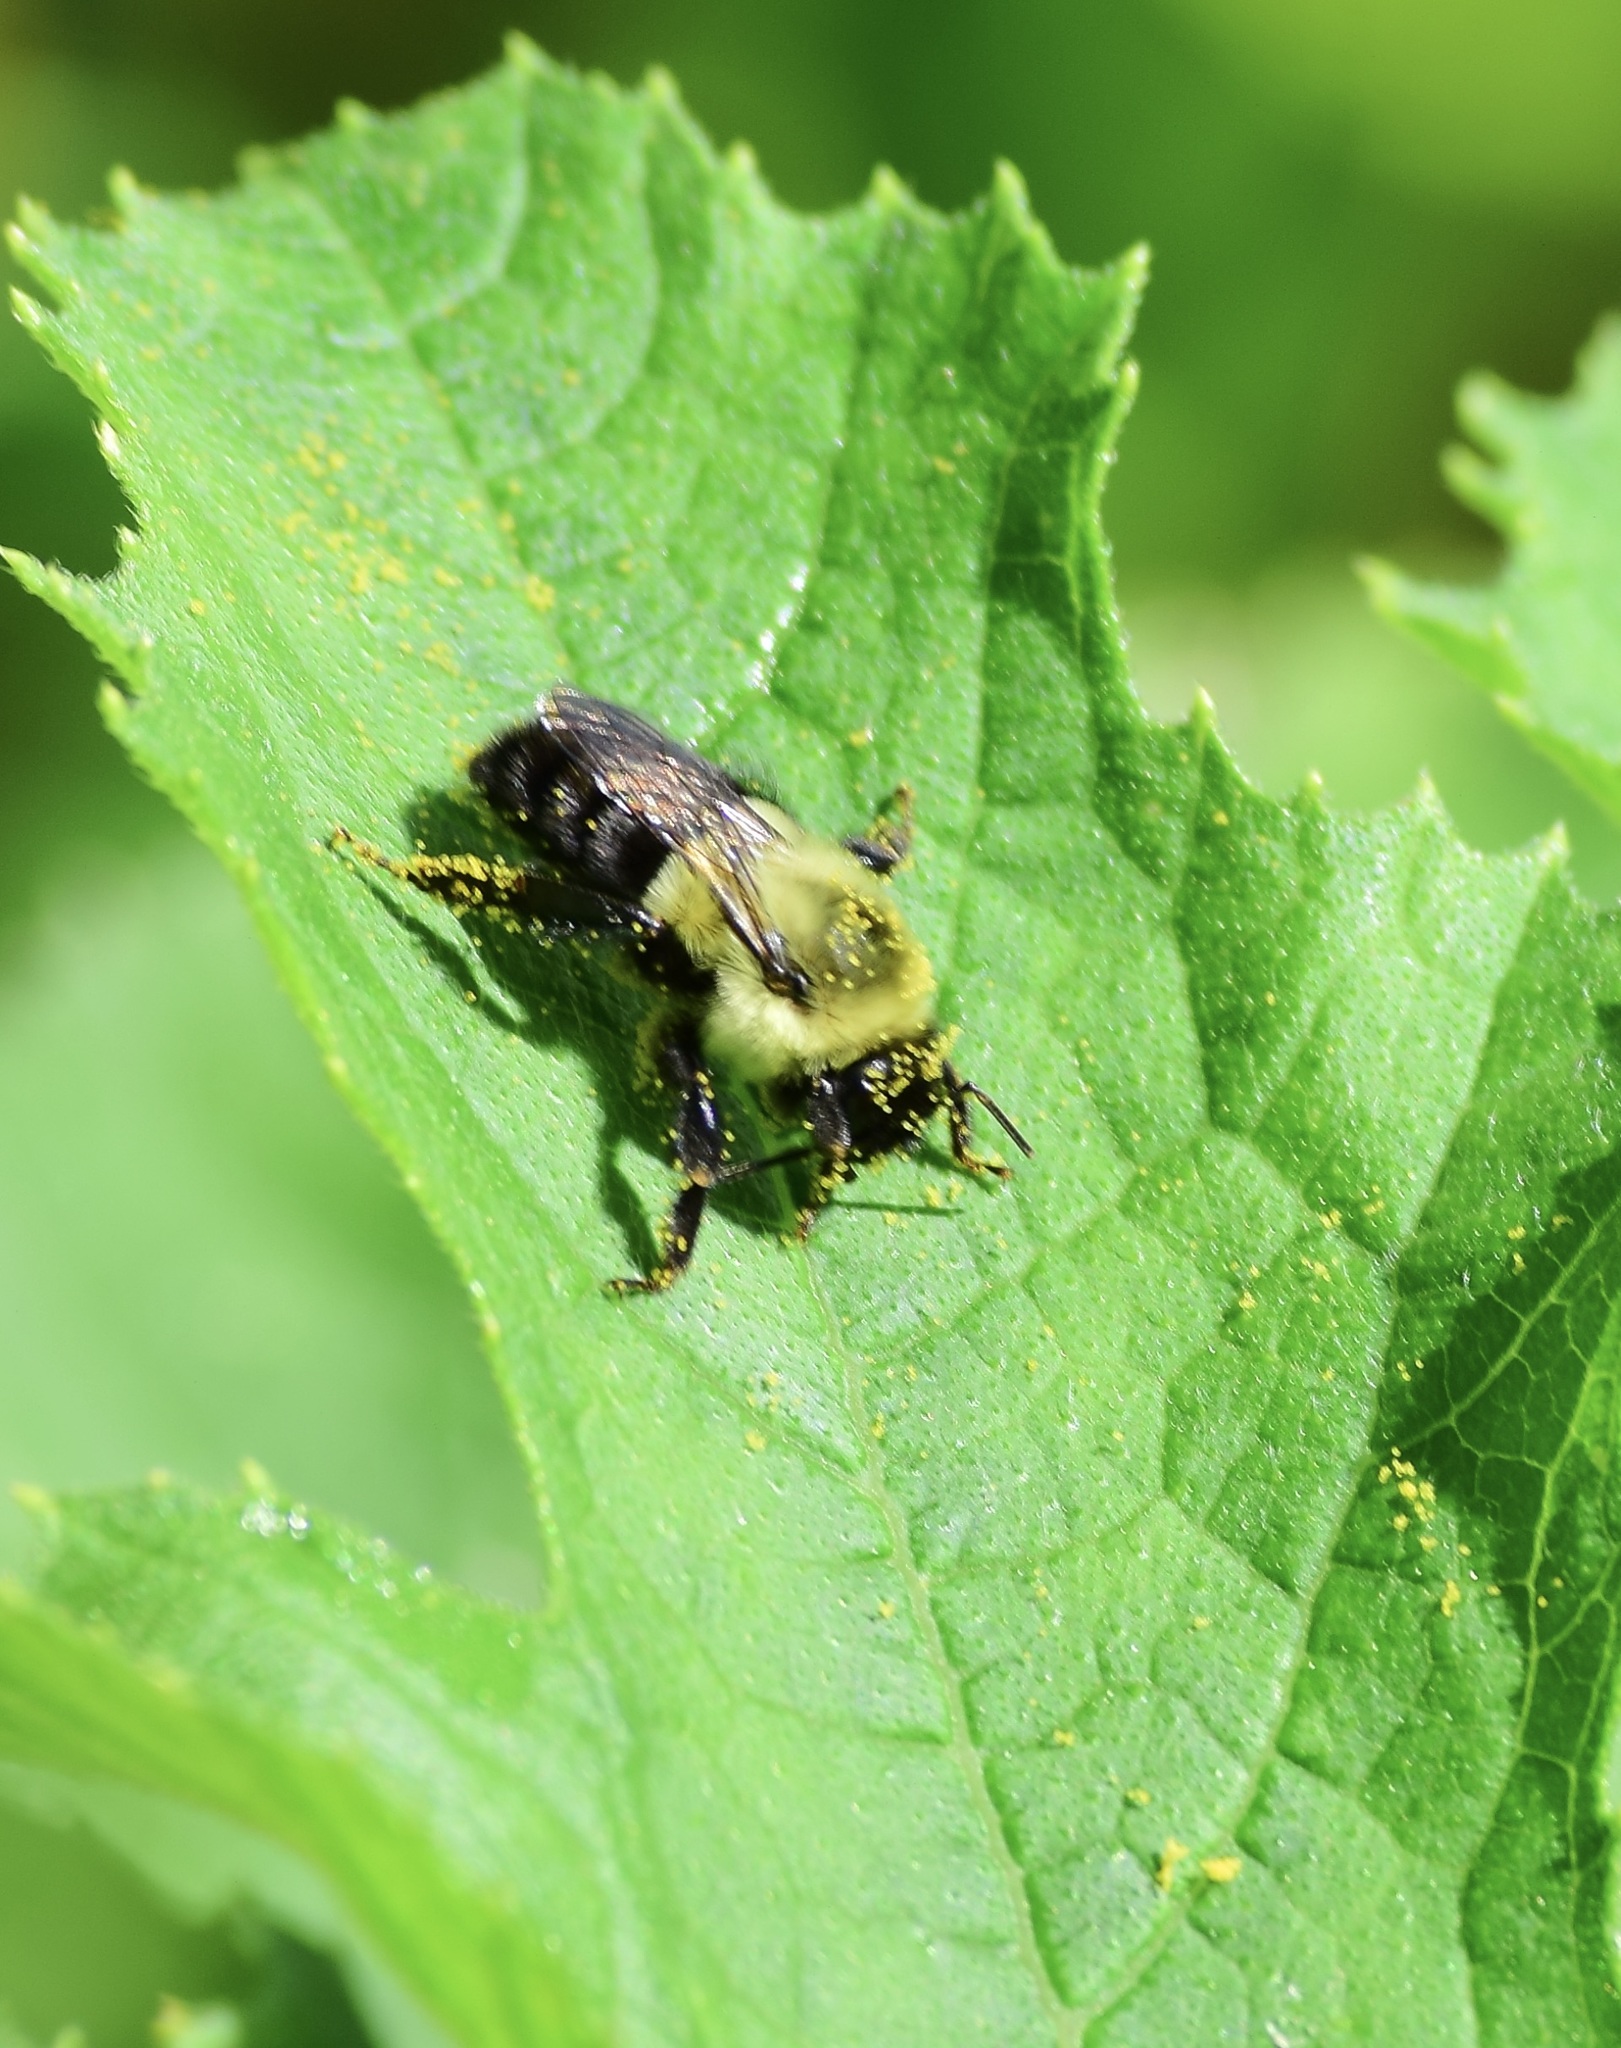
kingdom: Animalia
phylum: Arthropoda
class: Insecta
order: Hymenoptera
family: Apidae
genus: Bombus
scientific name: Bombus impatiens
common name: Common eastern bumble bee
